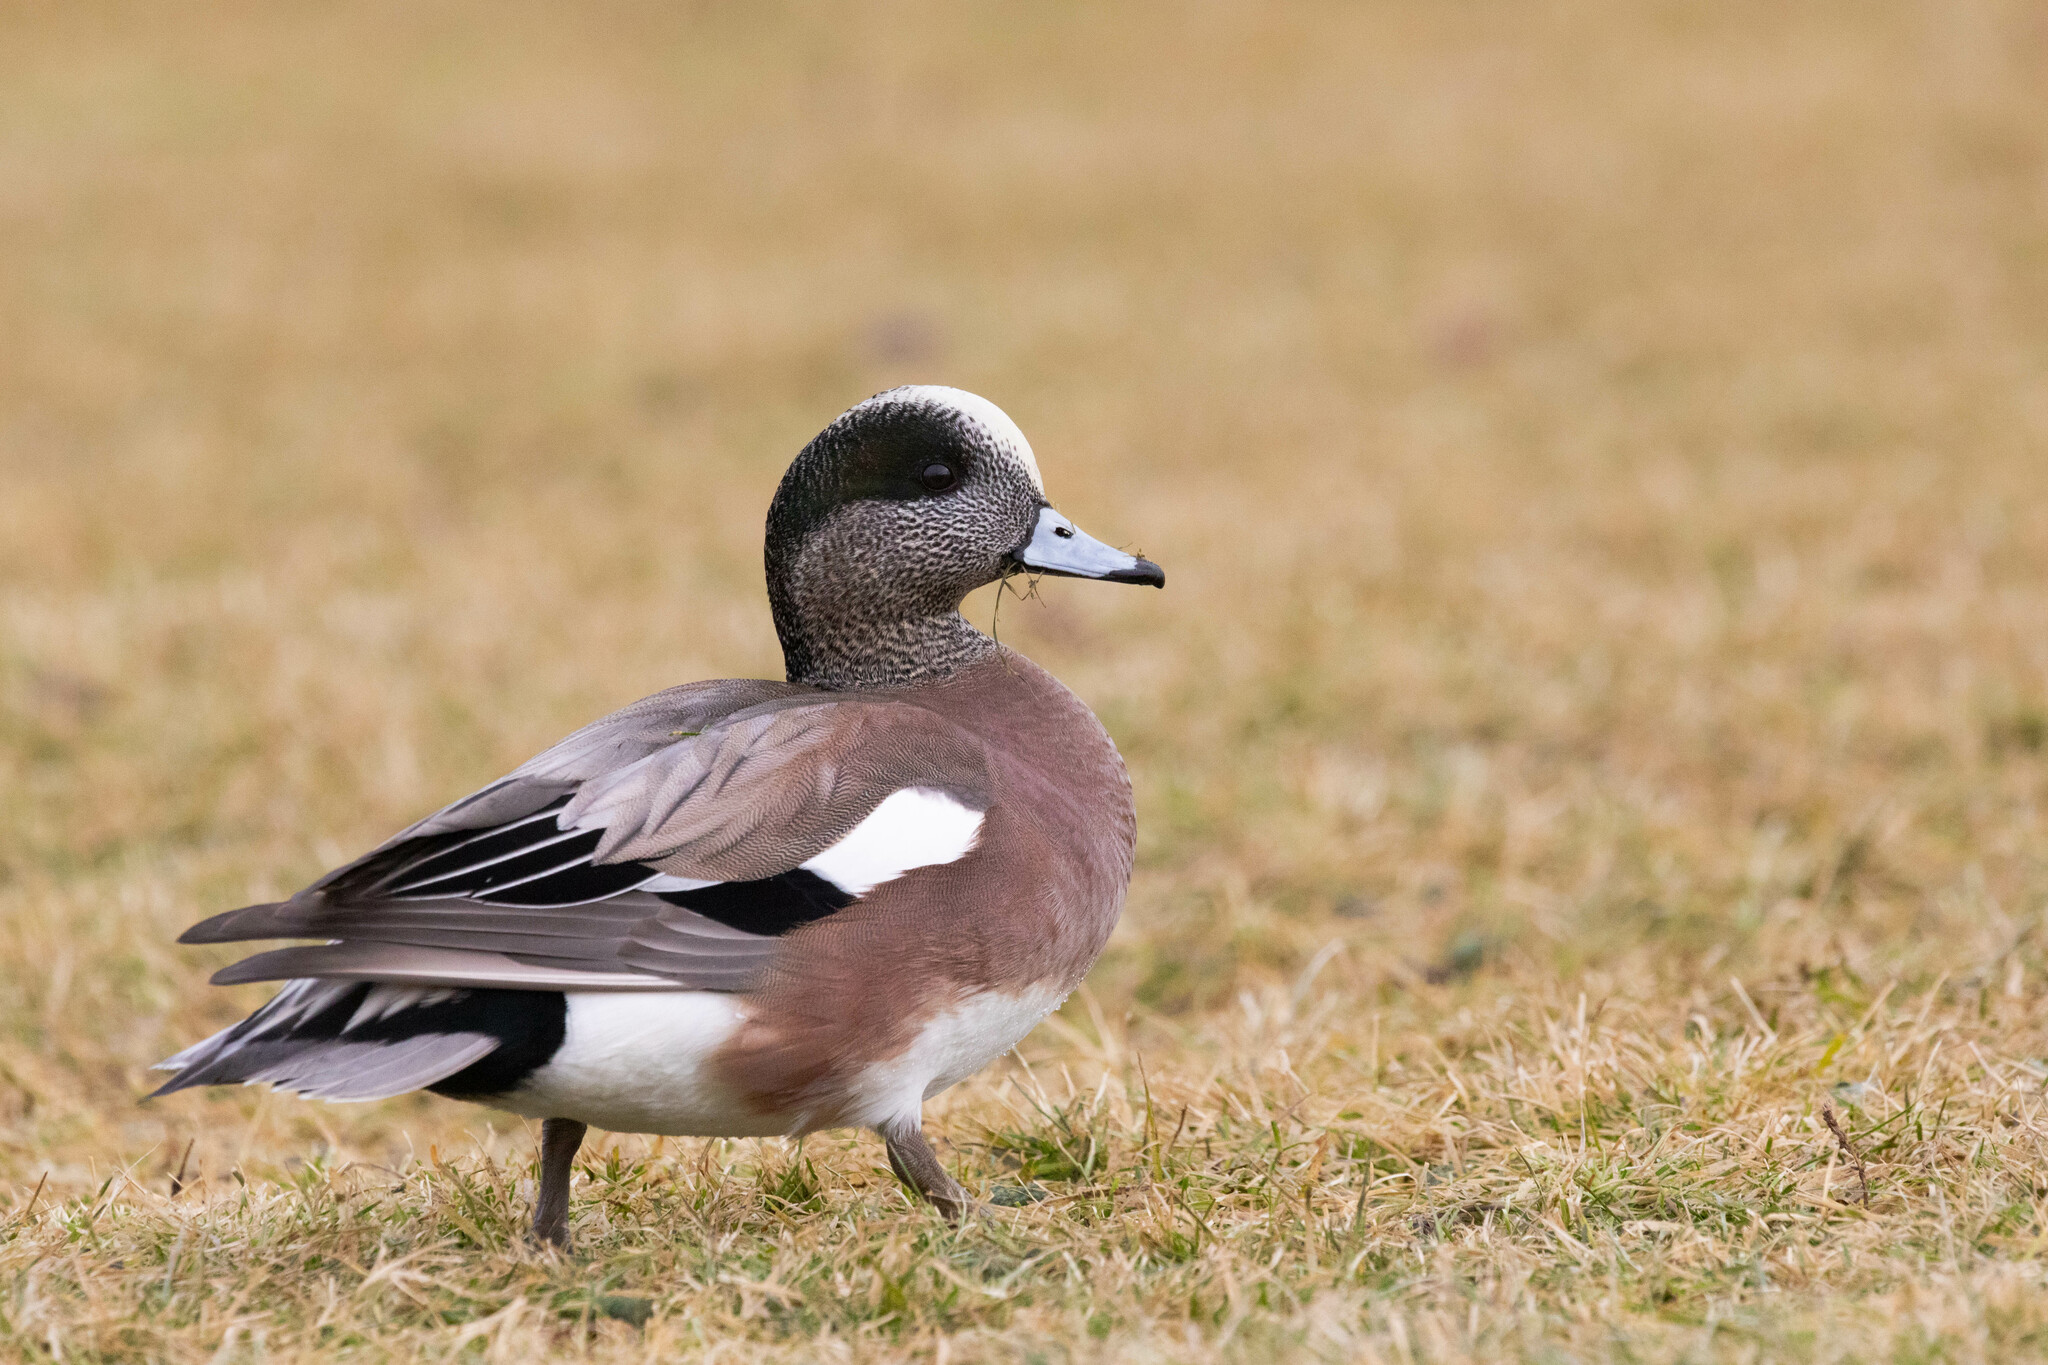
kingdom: Animalia
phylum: Chordata
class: Aves
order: Anseriformes
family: Anatidae
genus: Mareca
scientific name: Mareca americana
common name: American wigeon
